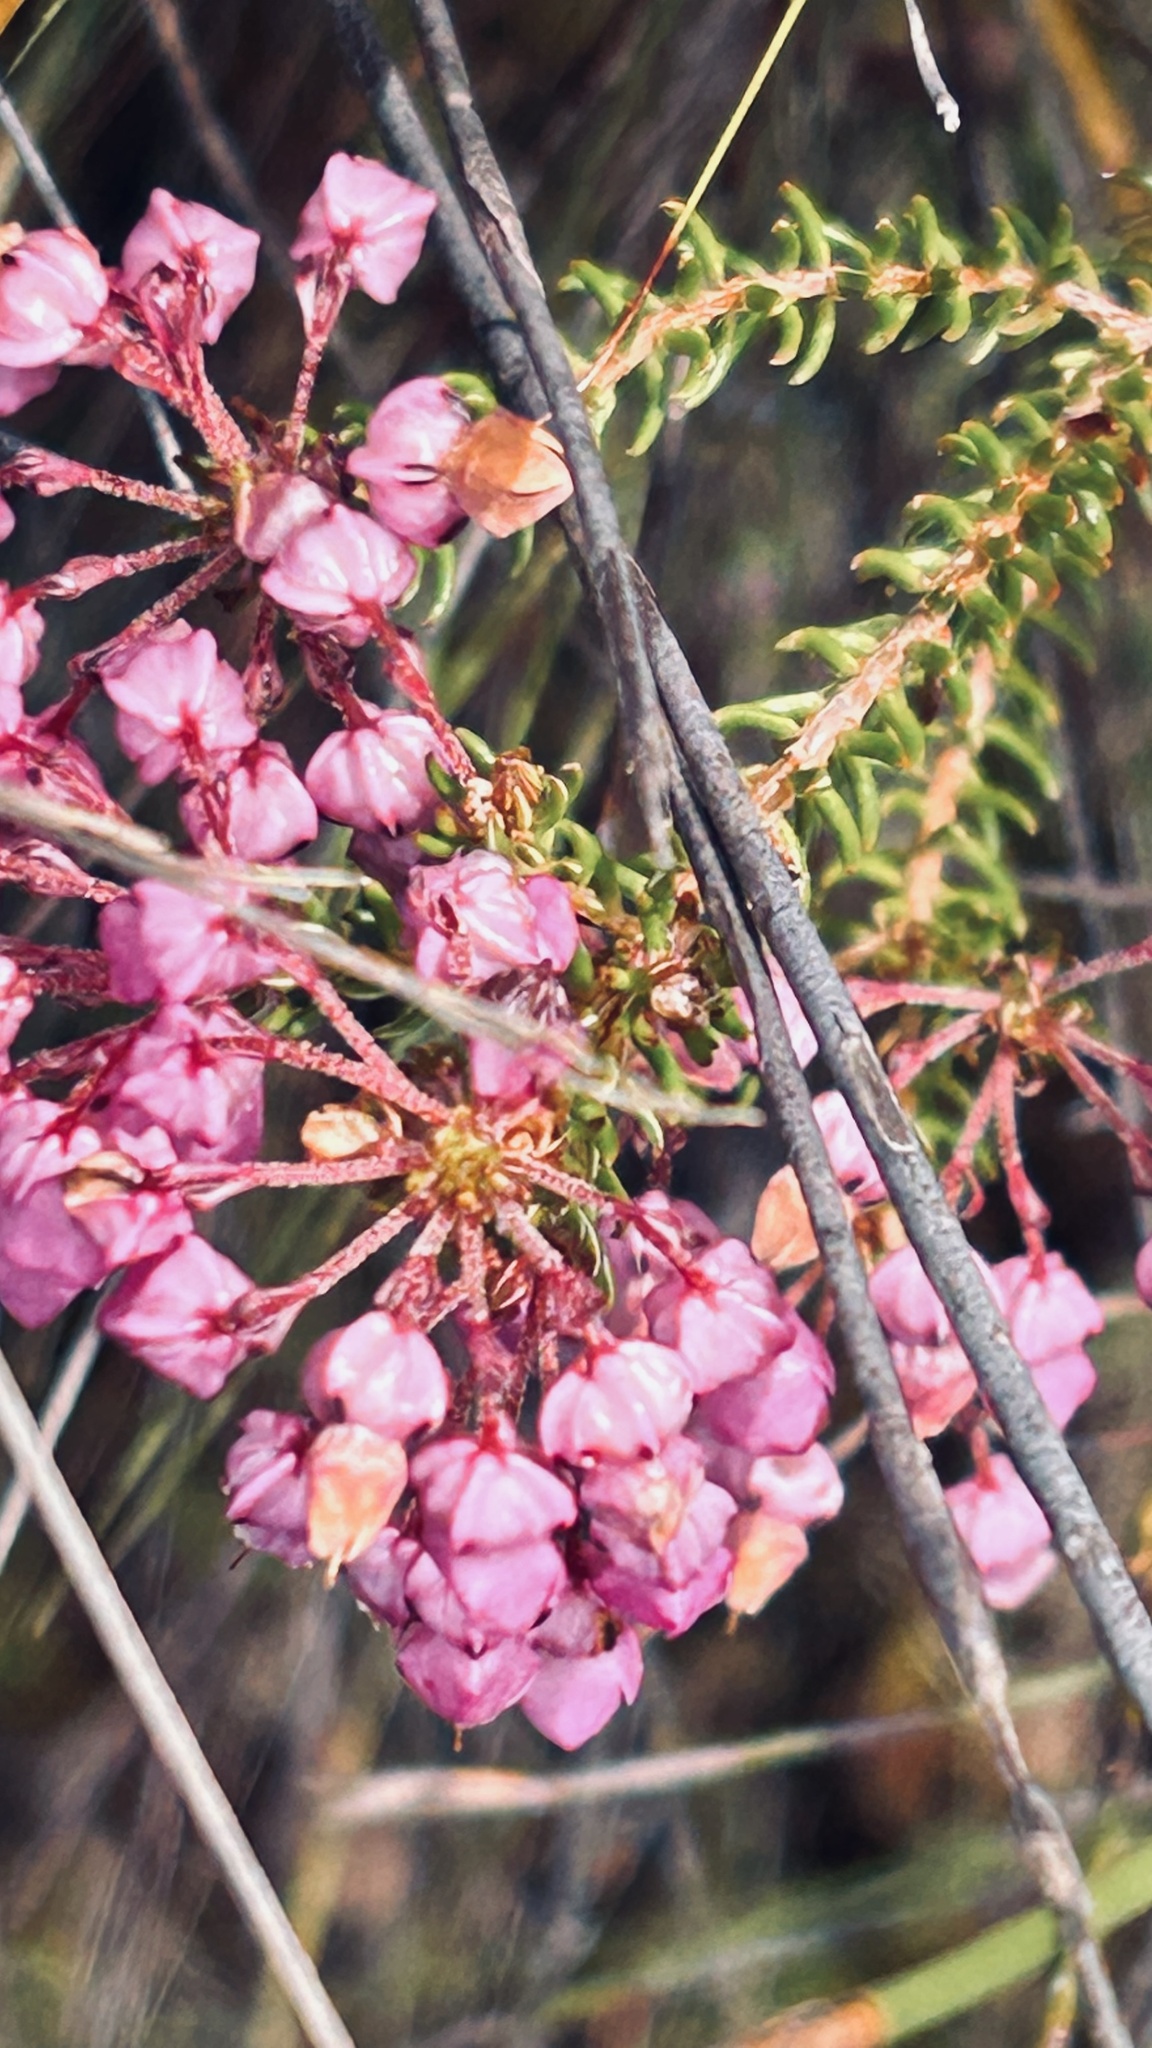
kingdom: Plantae
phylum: Tracheophyta
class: Magnoliopsida
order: Ericales
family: Ericaceae
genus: Erica
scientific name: Erica cubica
